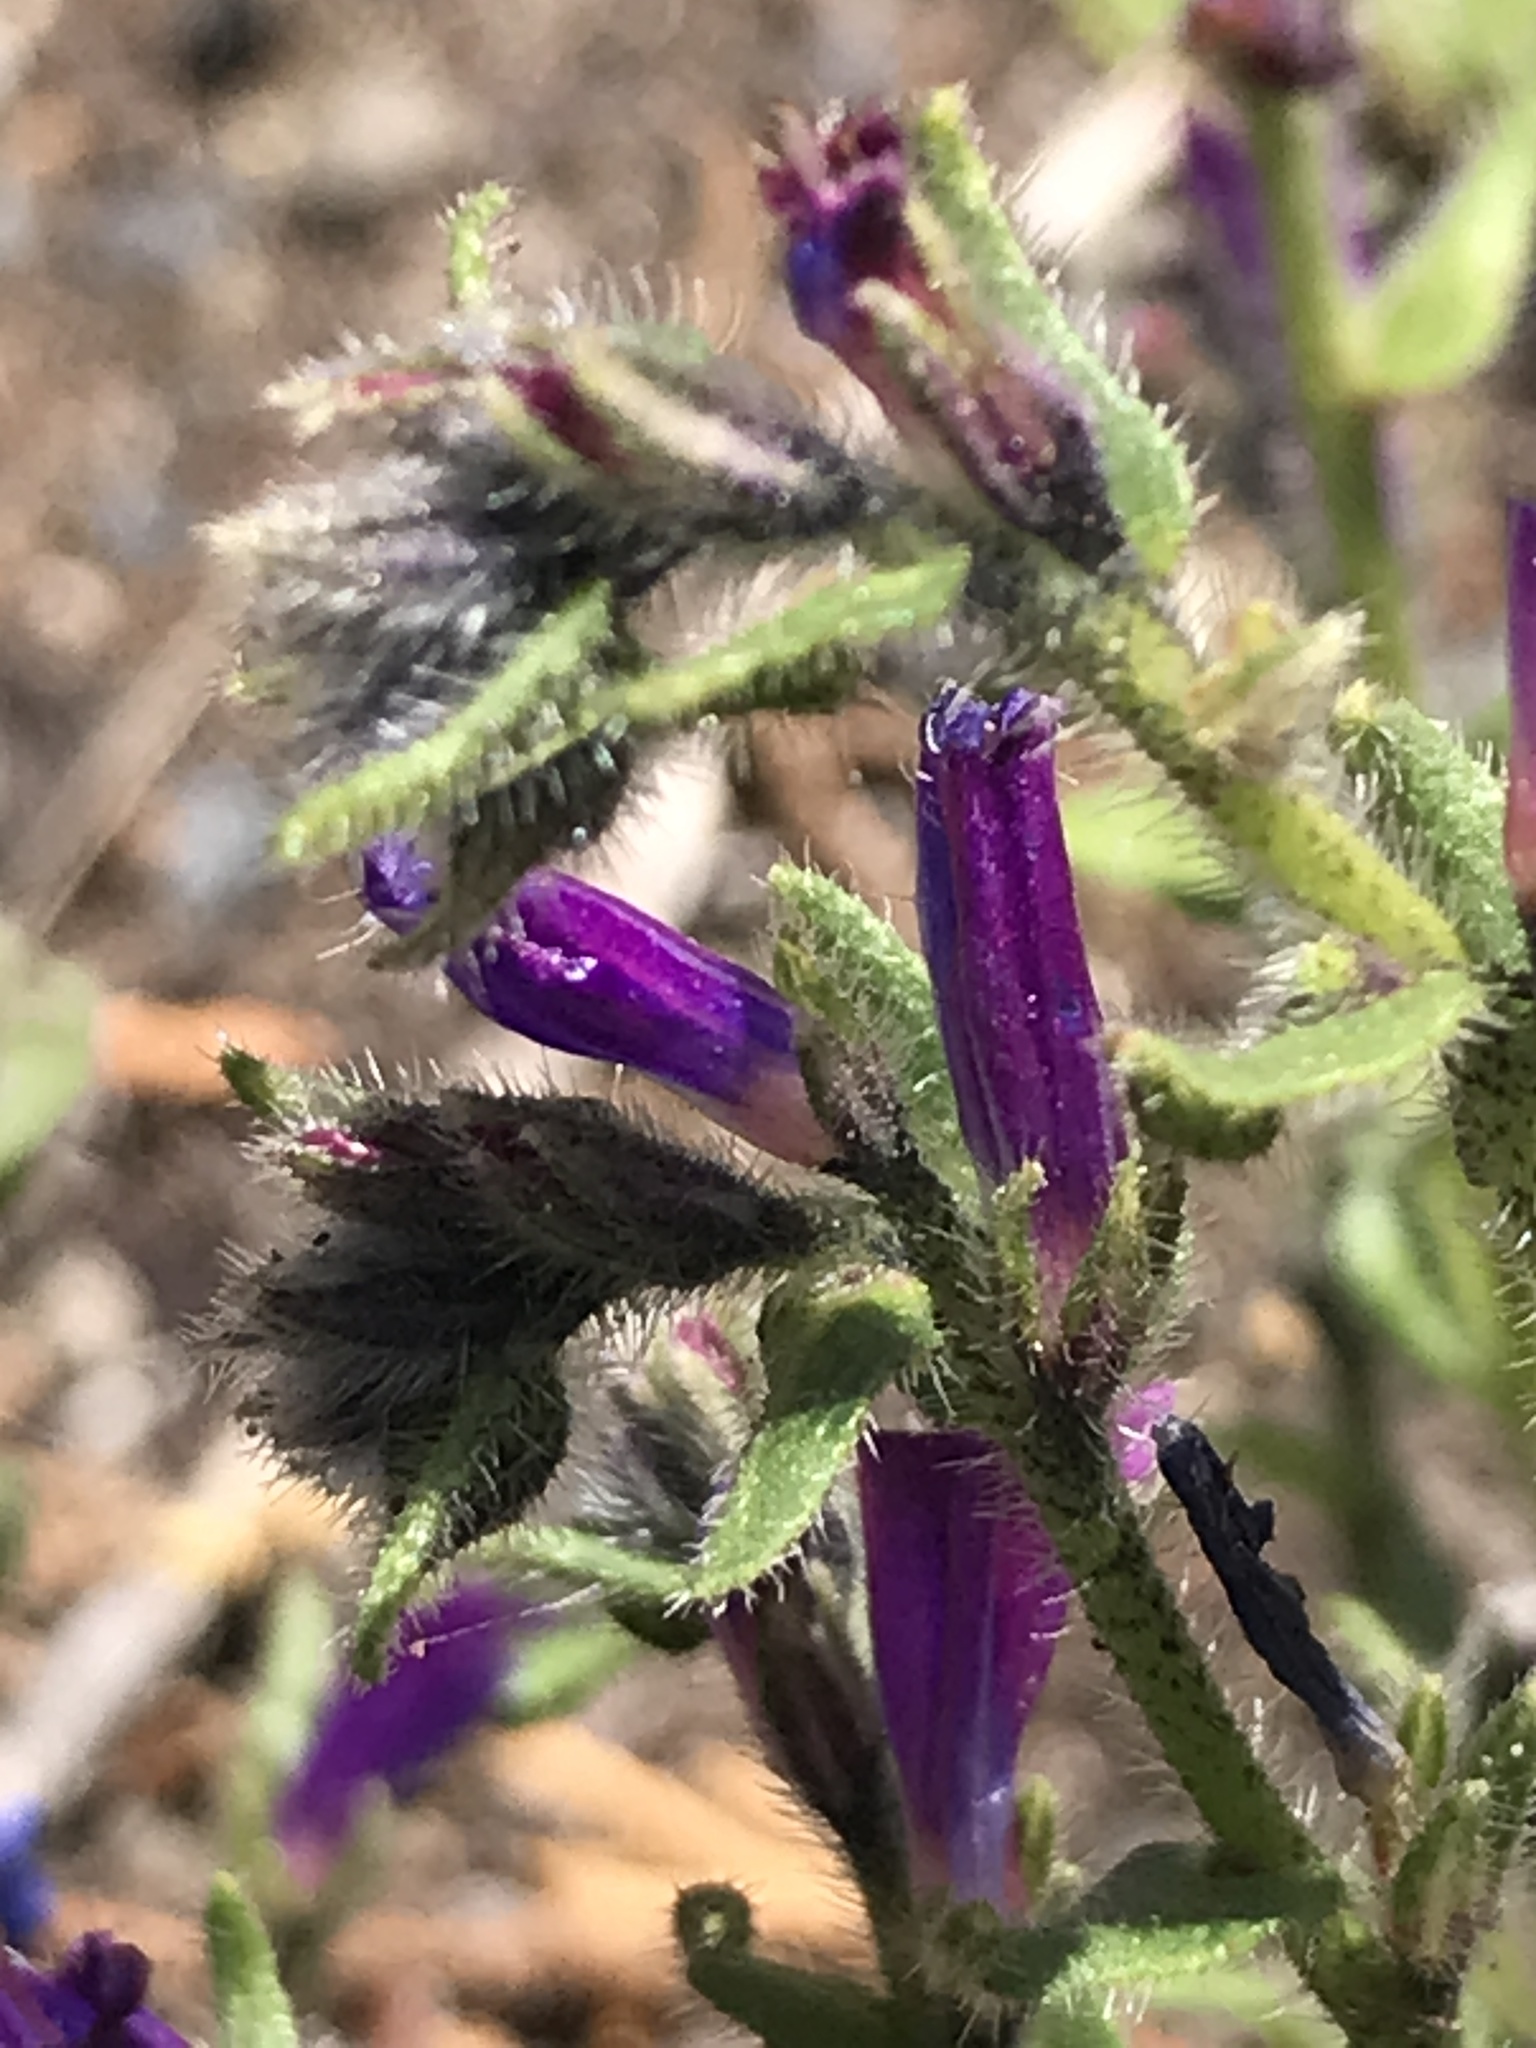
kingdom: Plantae
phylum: Tracheophyta
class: Magnoliopsida
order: Boraginales
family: Boraginaceae
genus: Echium
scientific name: Echium plantagineum
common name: Purple viper's-bugloss
